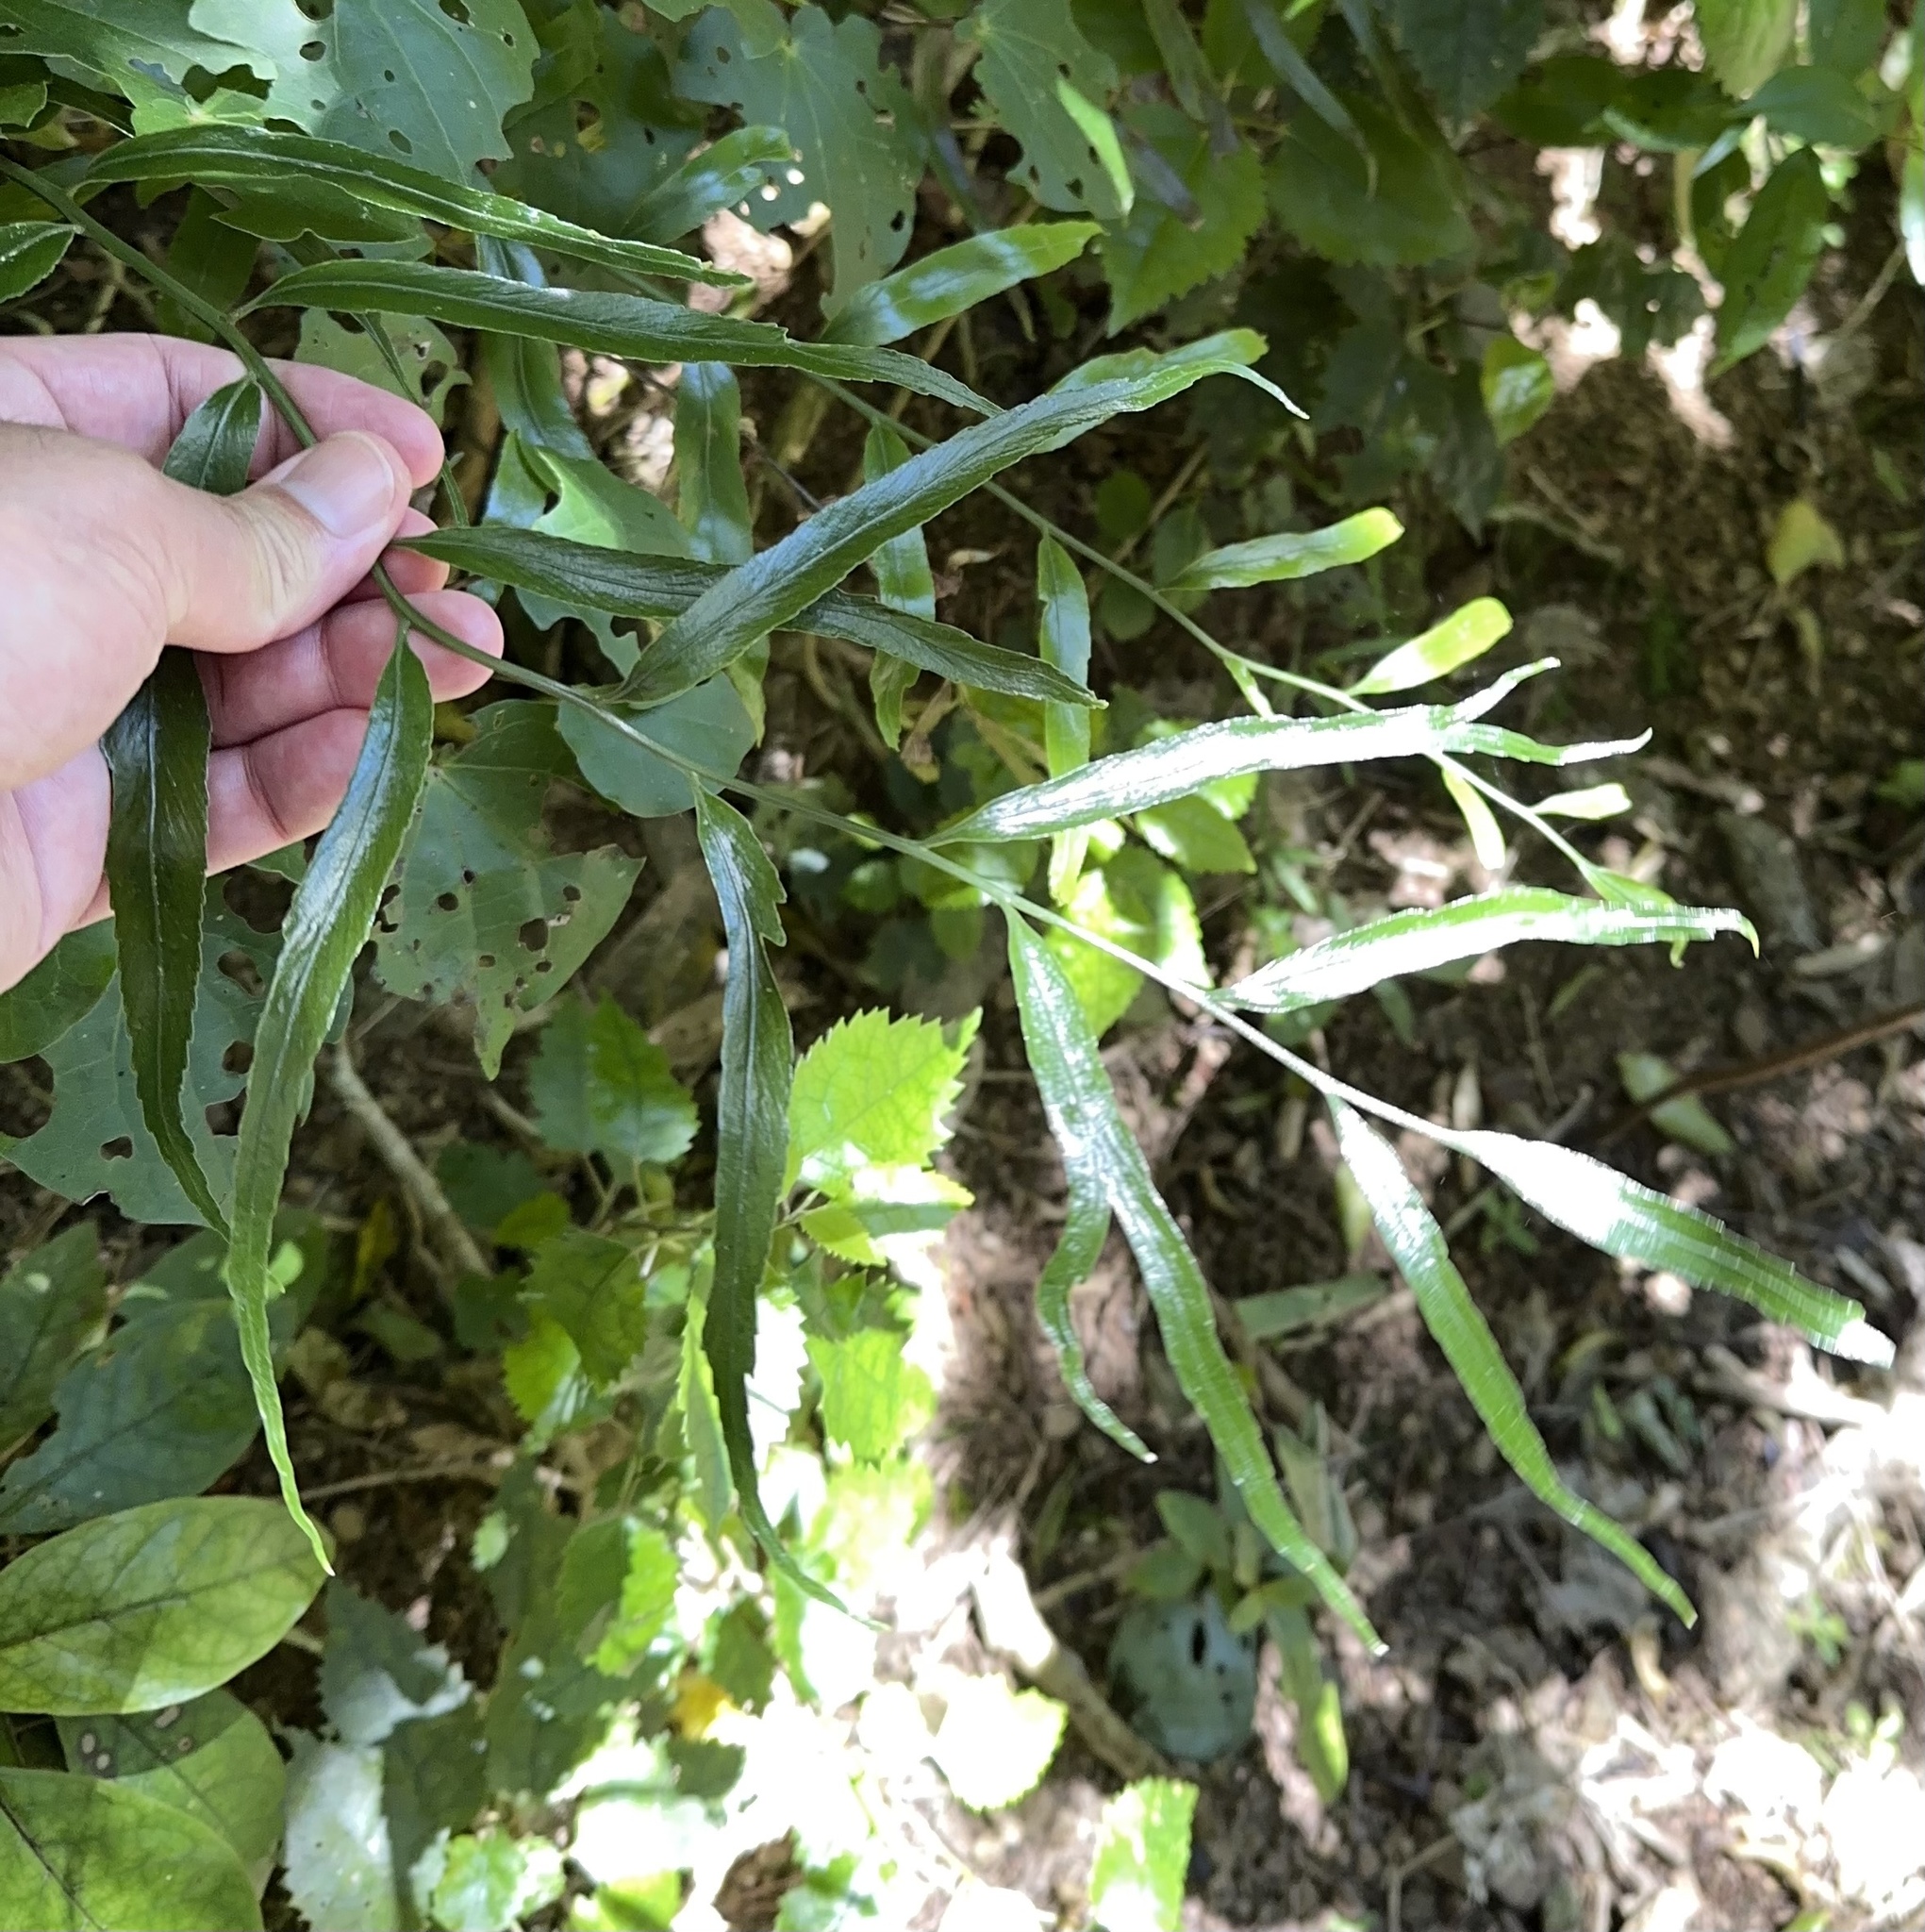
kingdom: Plantae
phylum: Tracheophyta
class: Polypodiopsida
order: Polypodiales
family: Aspleniaceae
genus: Asplenium
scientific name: Asplenium oblongifolium
